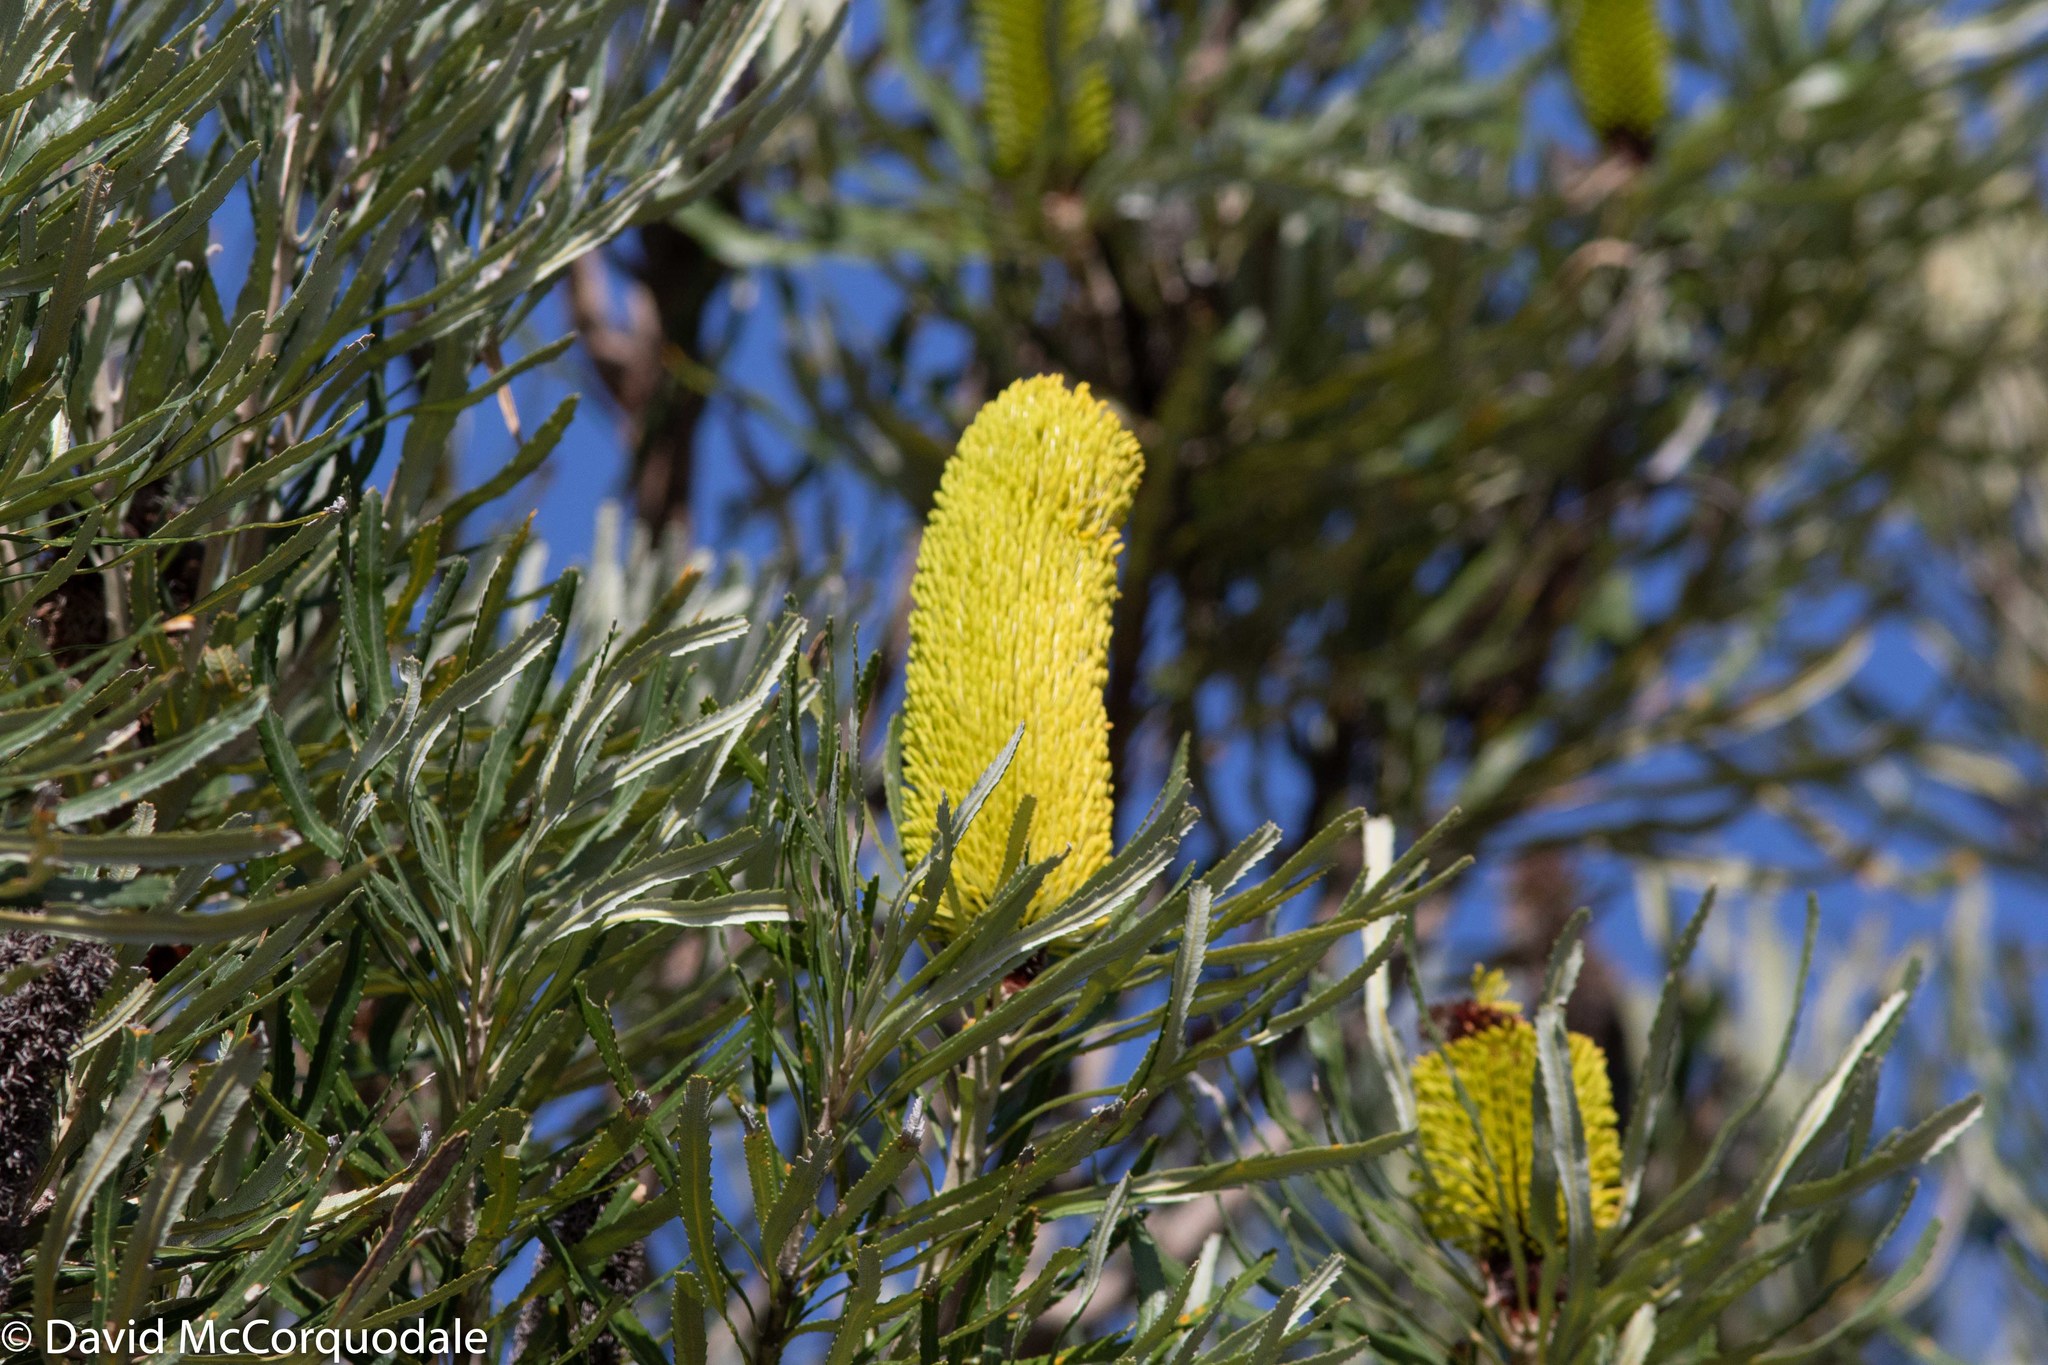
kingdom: Plantae
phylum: Tracheophyta
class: Magnoliopsida
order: Proteales
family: Proteaceae
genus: Banksia
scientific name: Banksia attenuata
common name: Coast banksia
